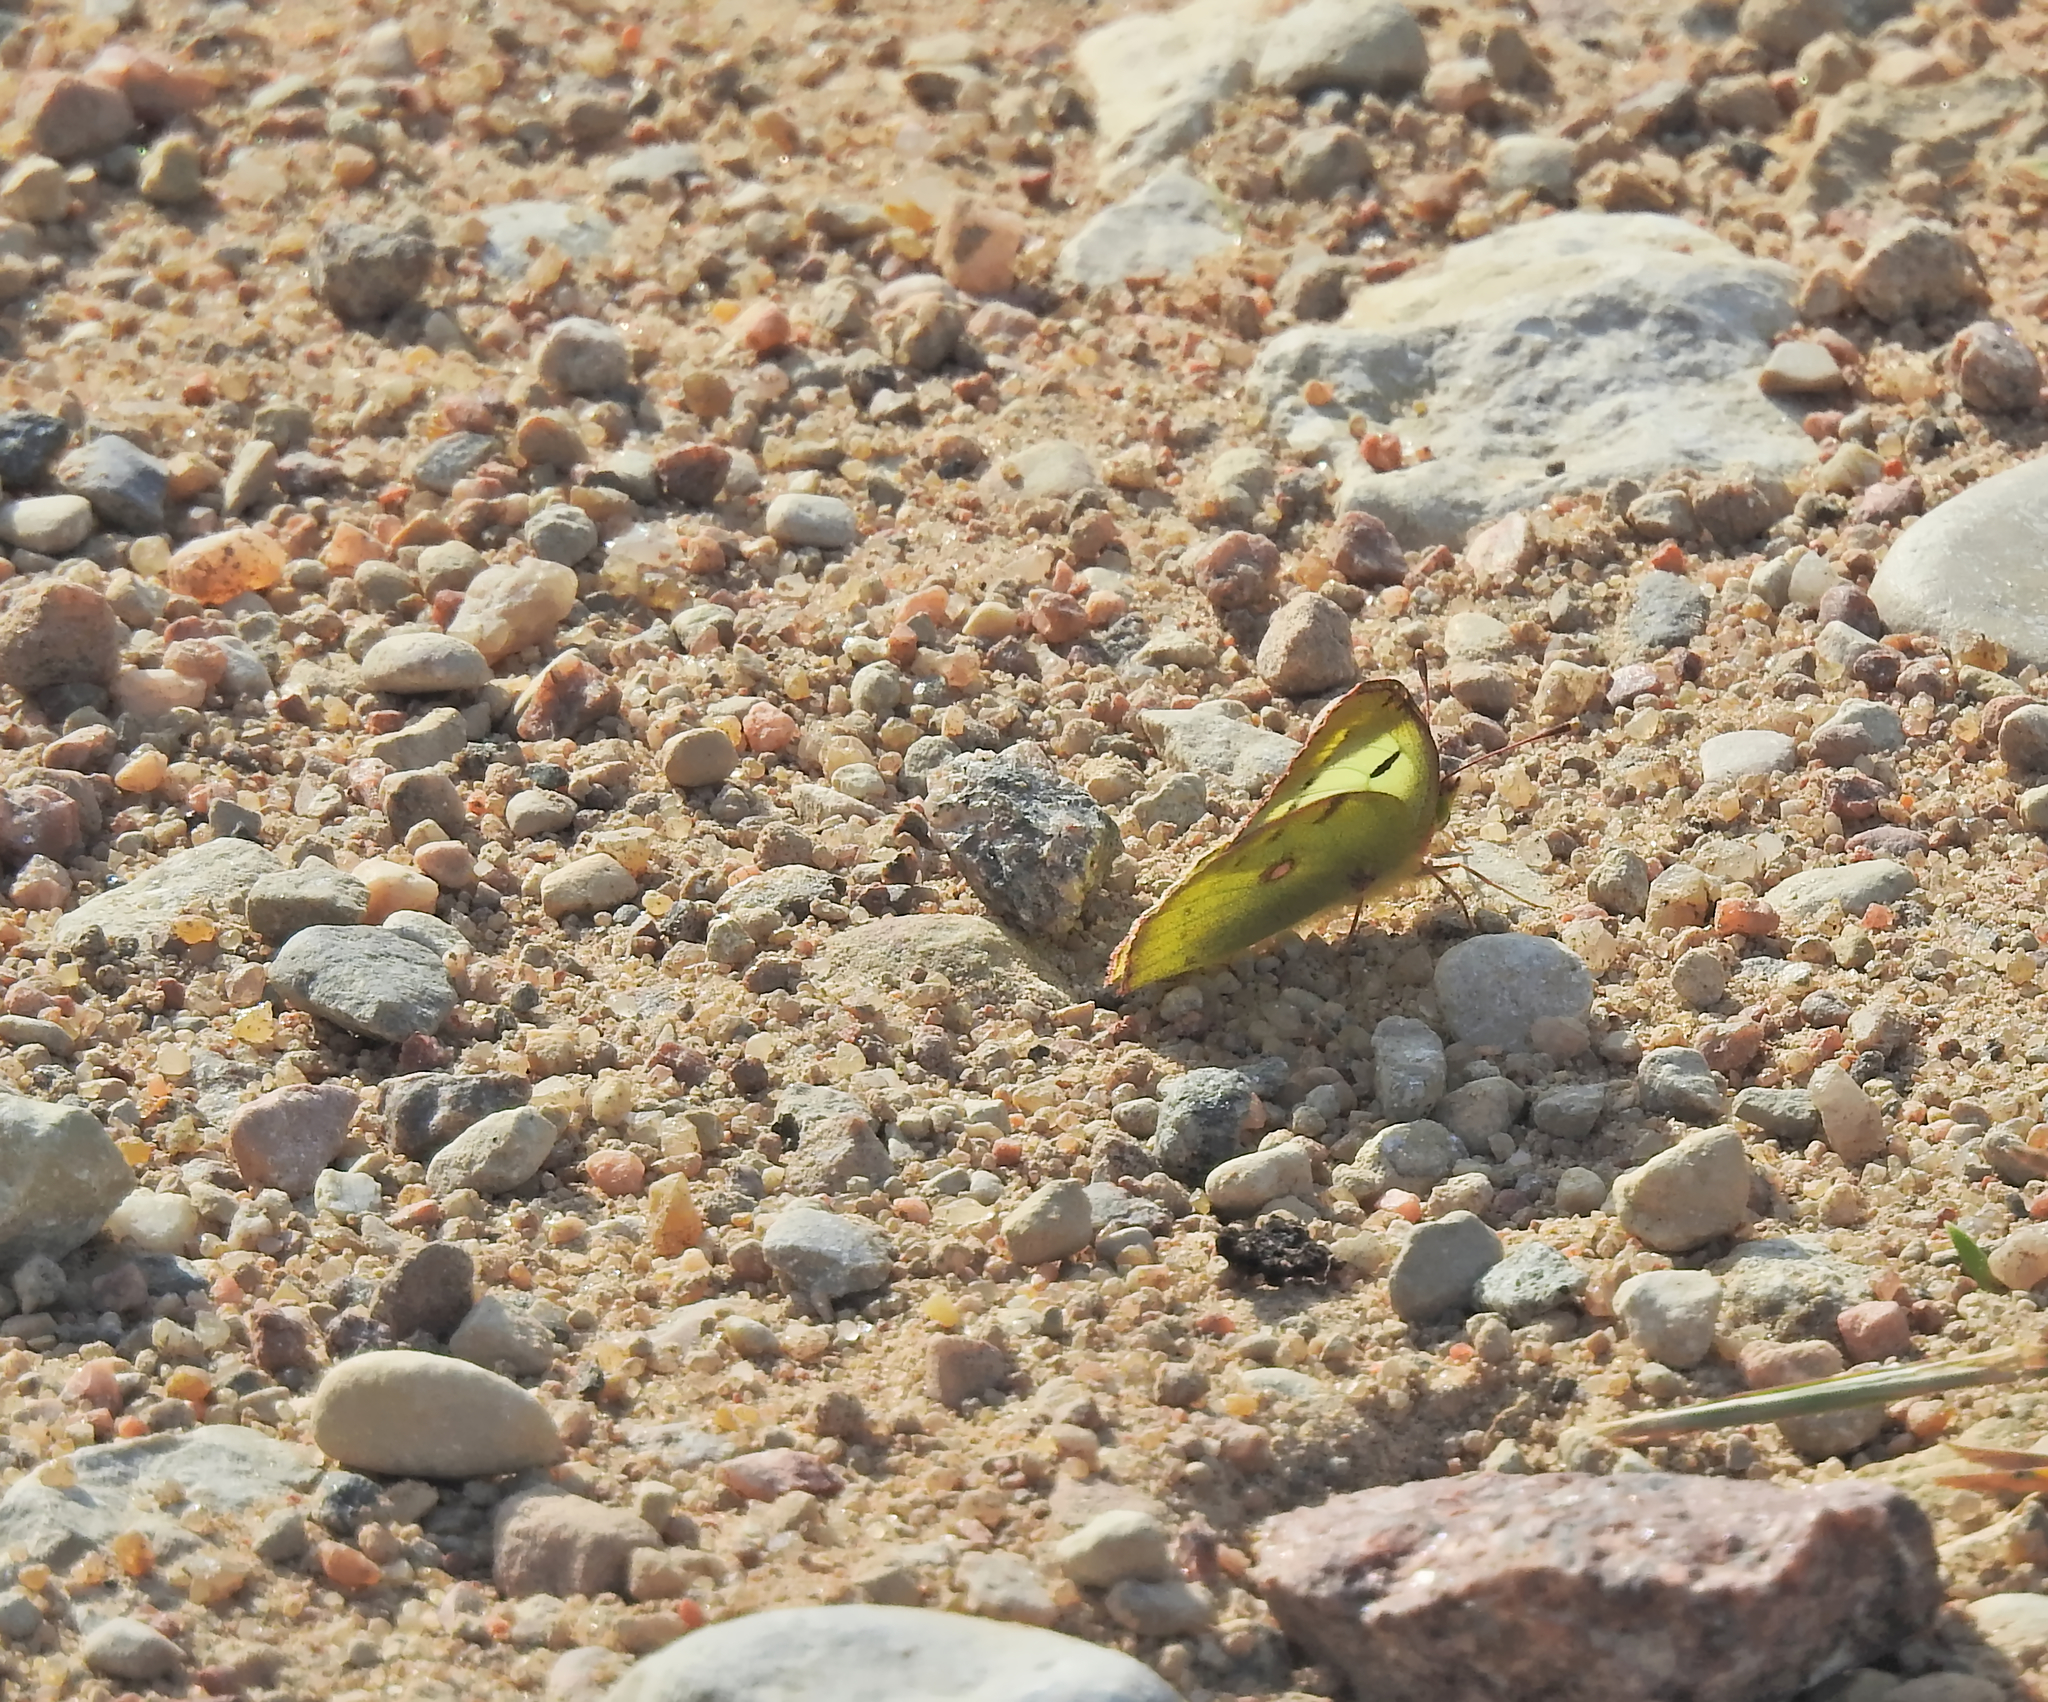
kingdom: Animalia
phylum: Arthropoda
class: Insecta
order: Lepidoptera
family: Pieridae
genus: Colias
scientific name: Colias hyale
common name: Pale clouded yellow
